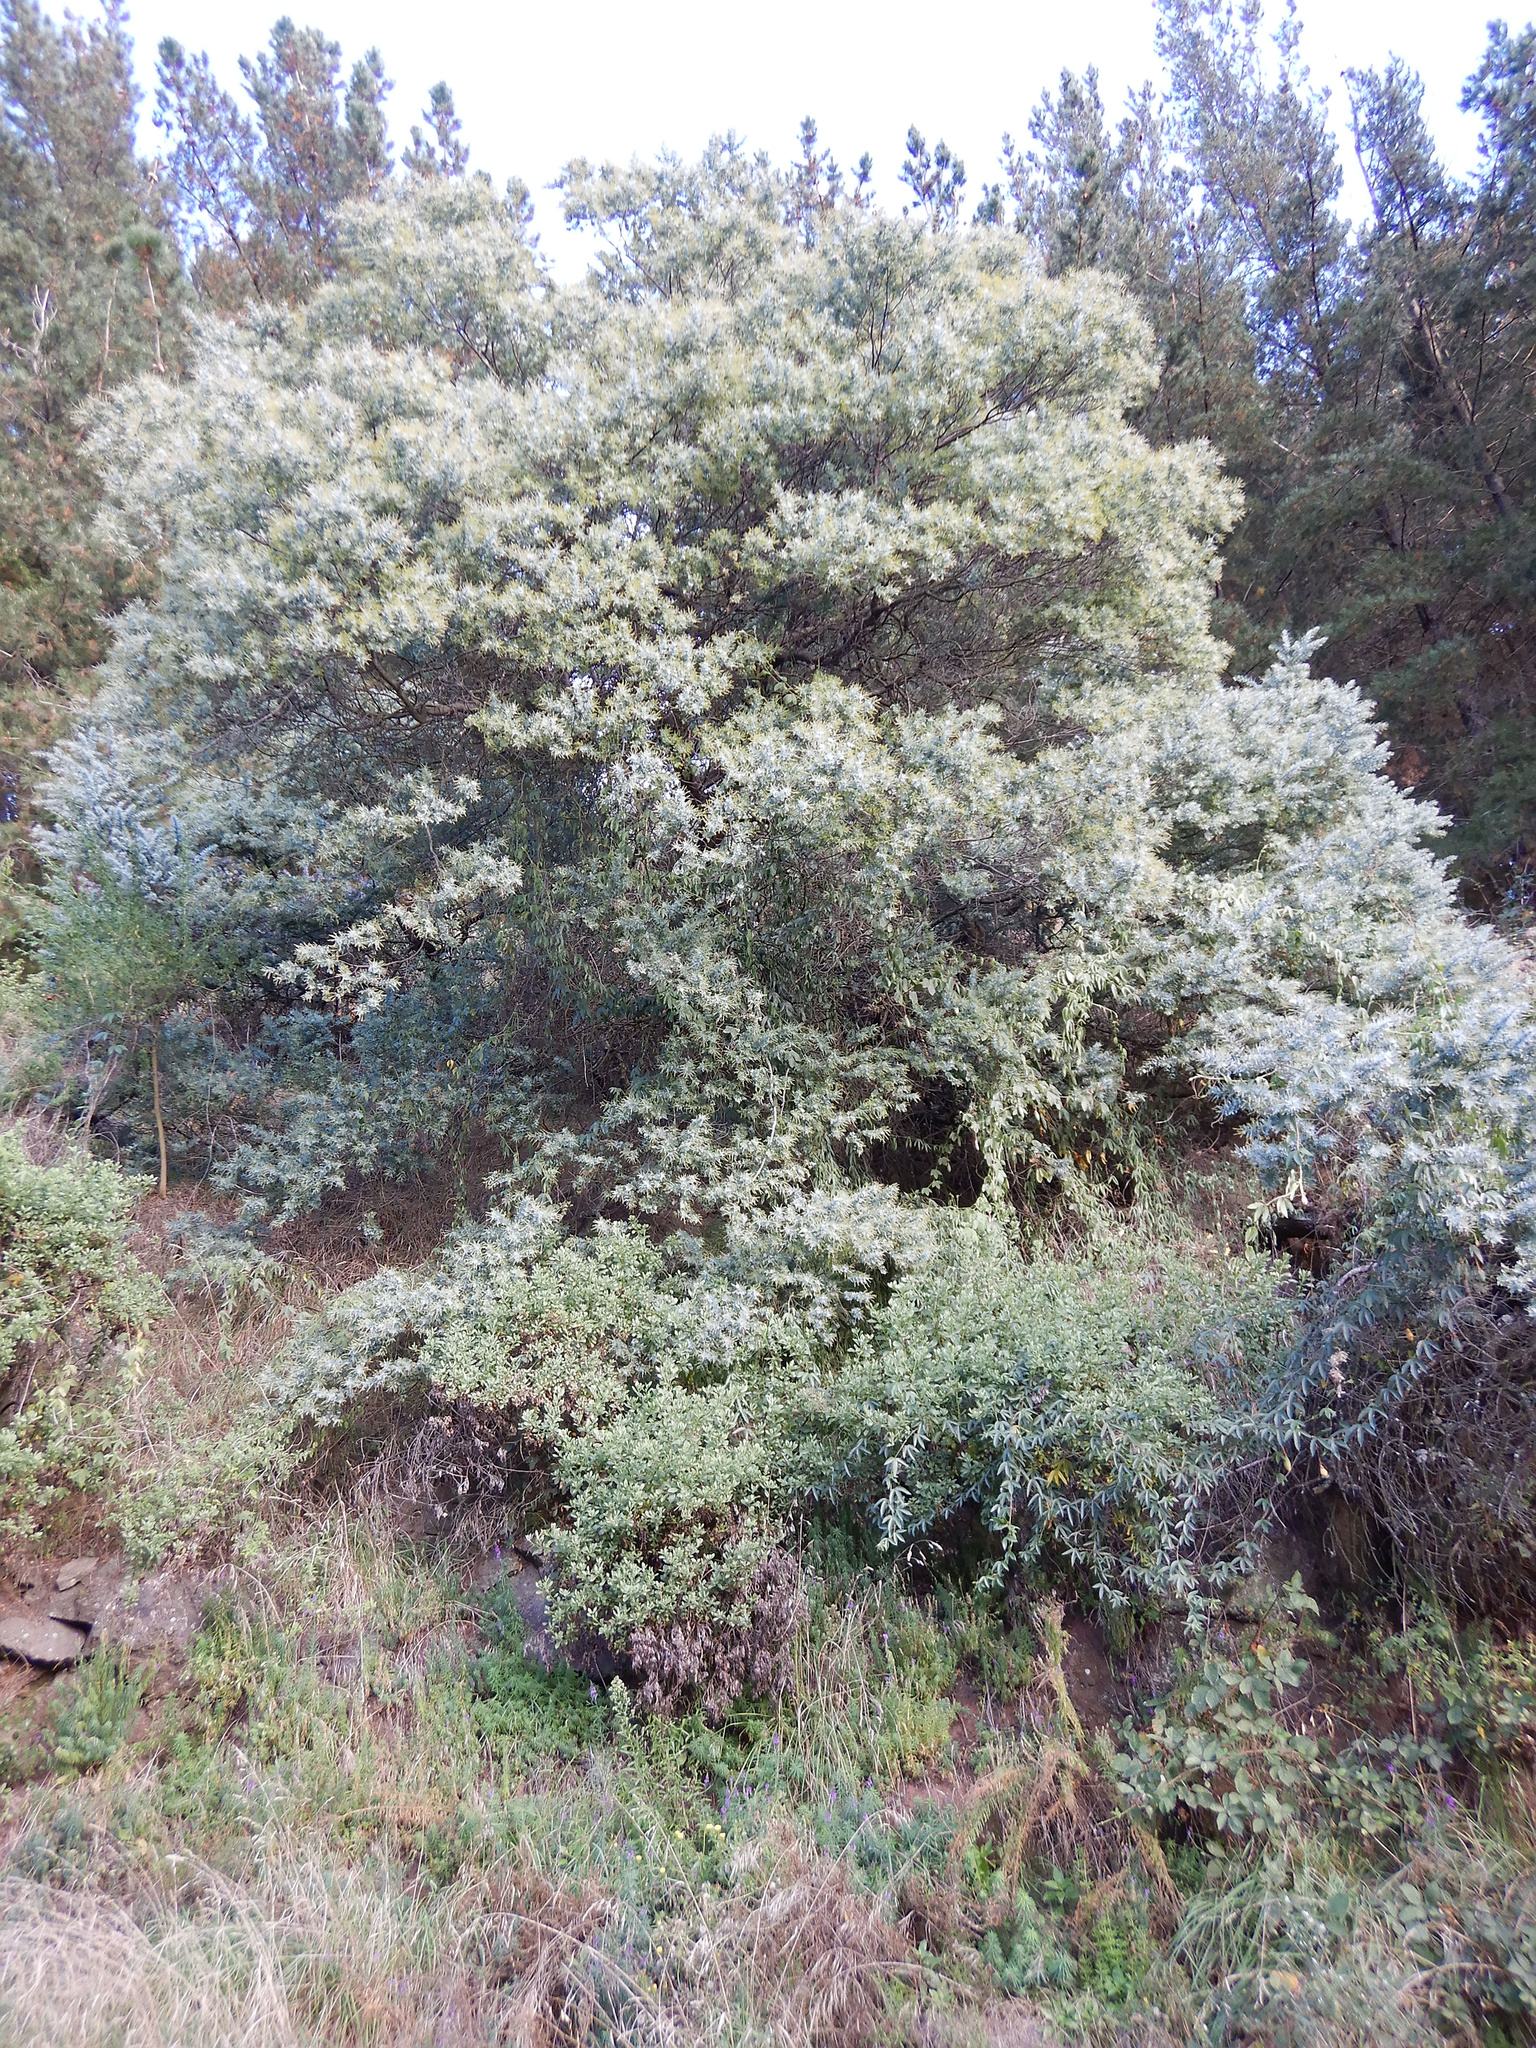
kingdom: Plantae
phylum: Tracheophyta
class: Magnoliopsida
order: Fabales
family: Fabaceae
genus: Acacia
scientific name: Acacia baileyana
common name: Cootamundra wattle
